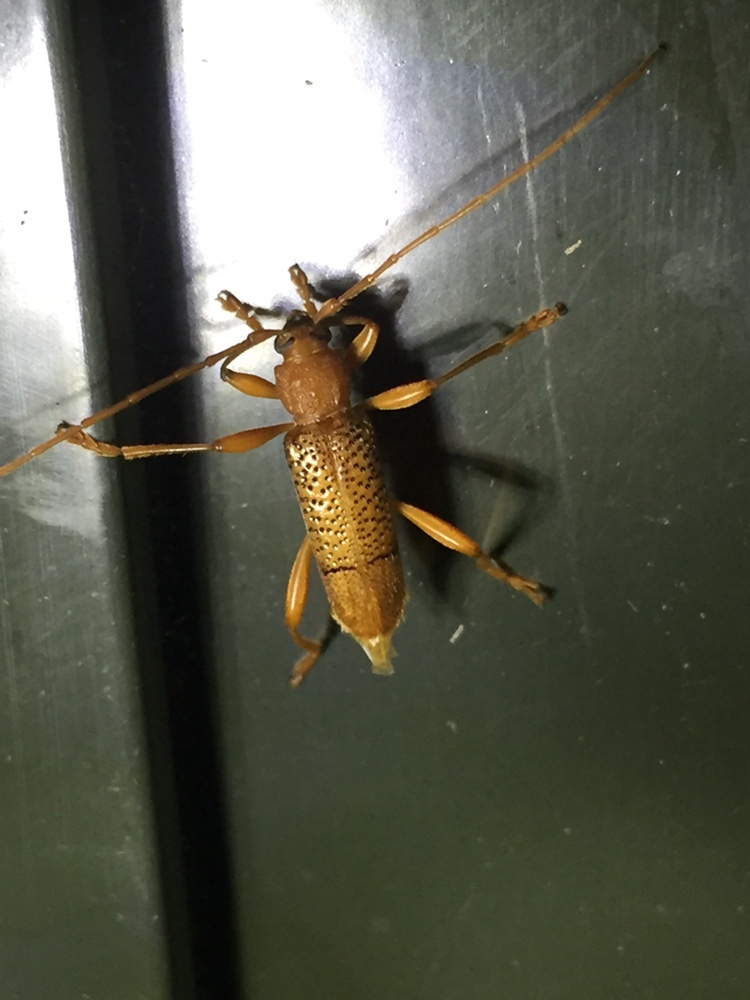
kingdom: Animalia
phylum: Arthropoda
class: Insecta
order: Coleoptera
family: Cerambycidae
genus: Xuthodes
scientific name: Xuthodes punctipennis
